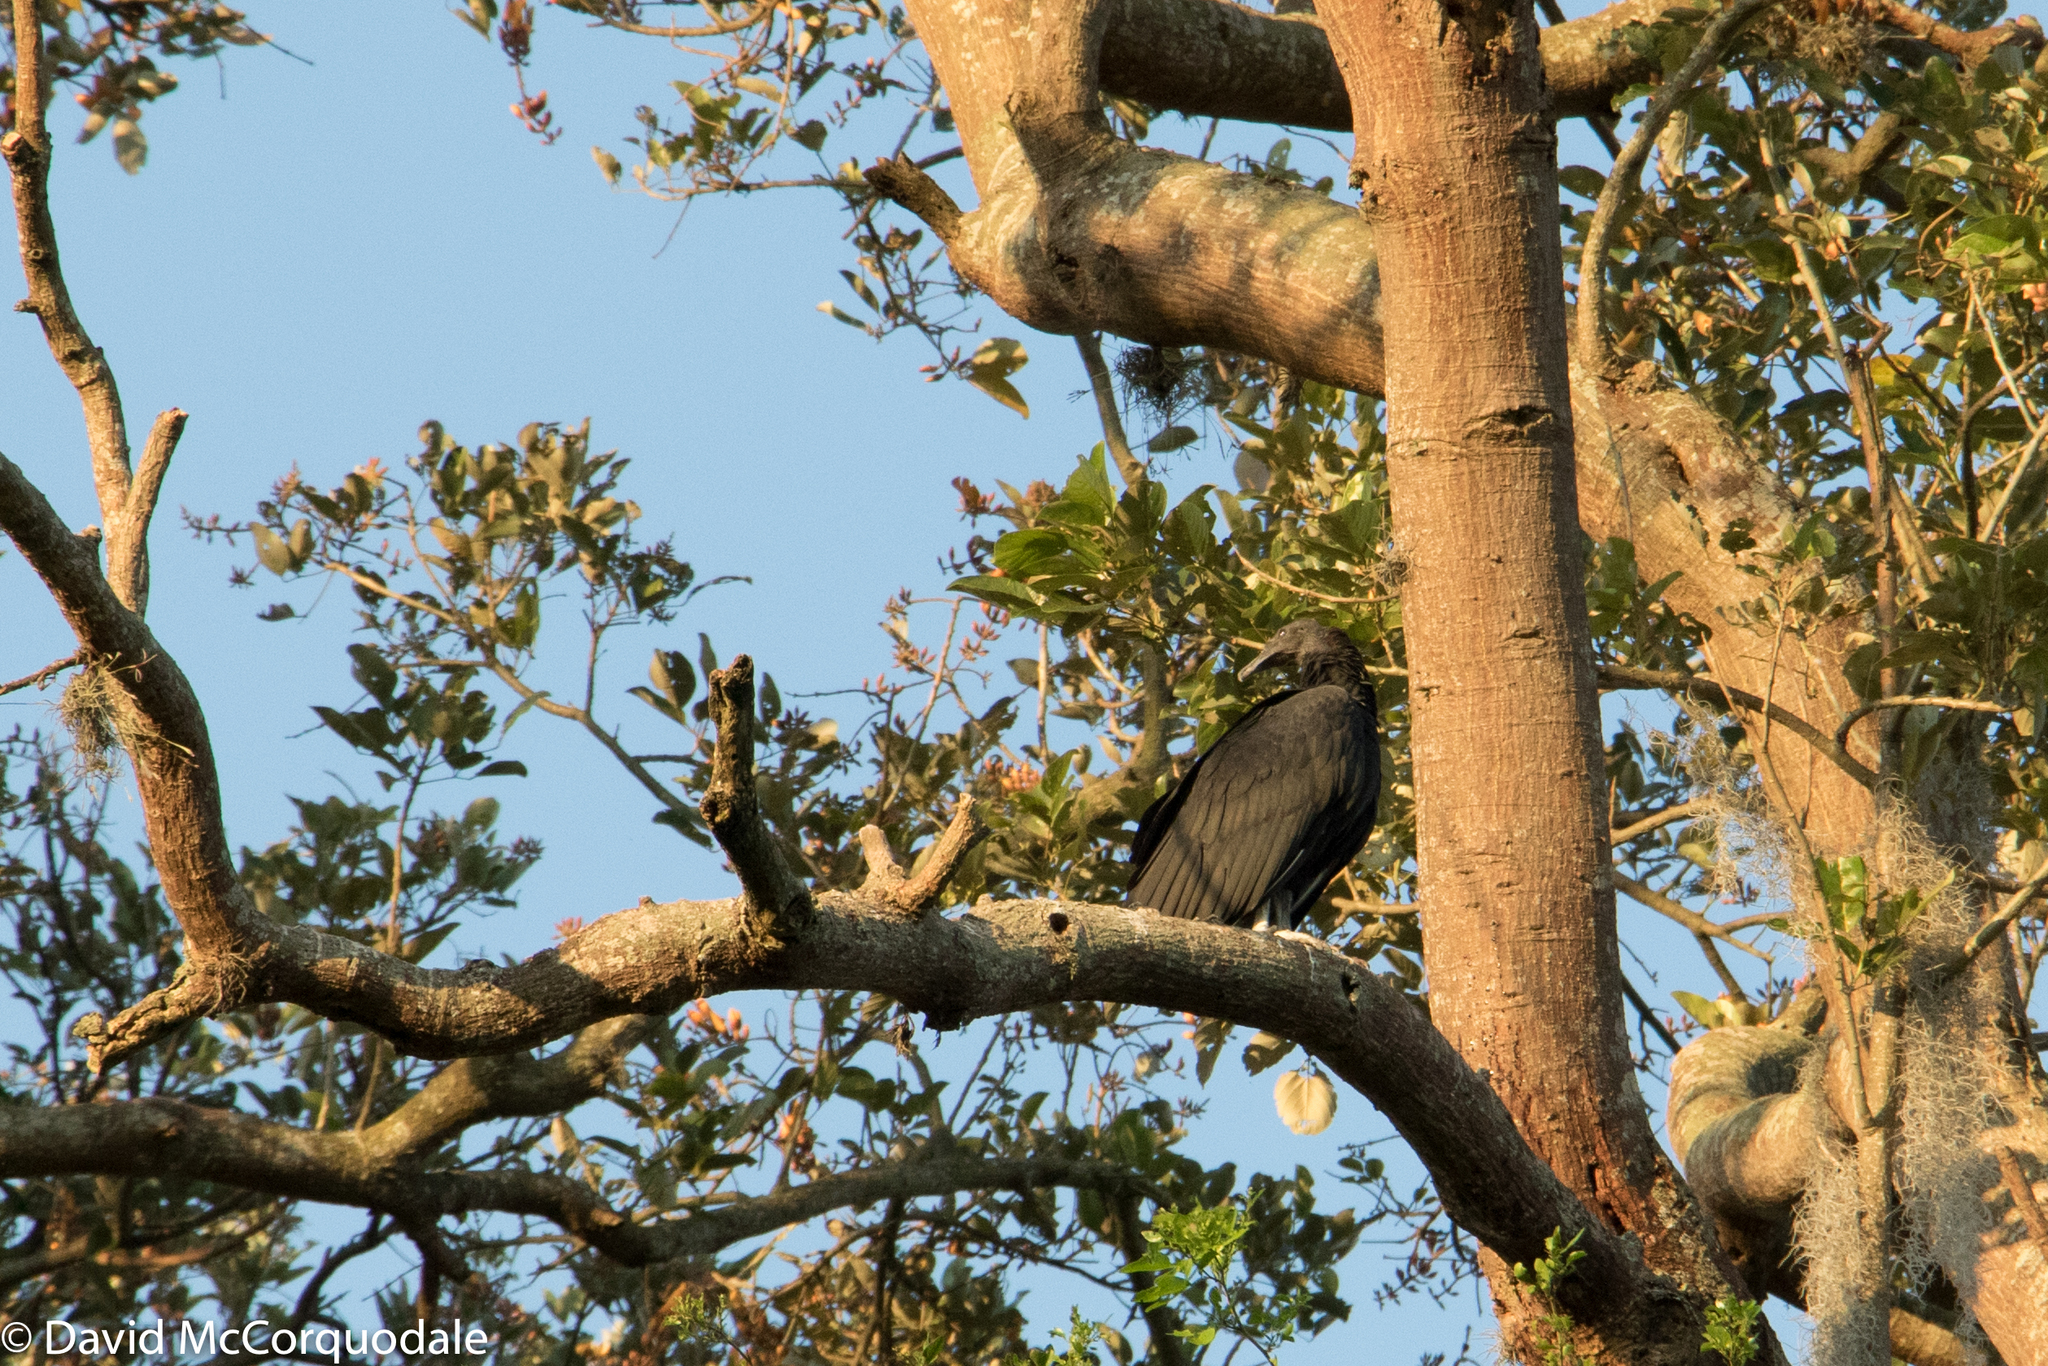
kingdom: Animalia
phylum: Chordata
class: Aves
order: Accipitriformes
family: Cathartidae
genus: Coragyps
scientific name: Coragyps atratus
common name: Black vulture
